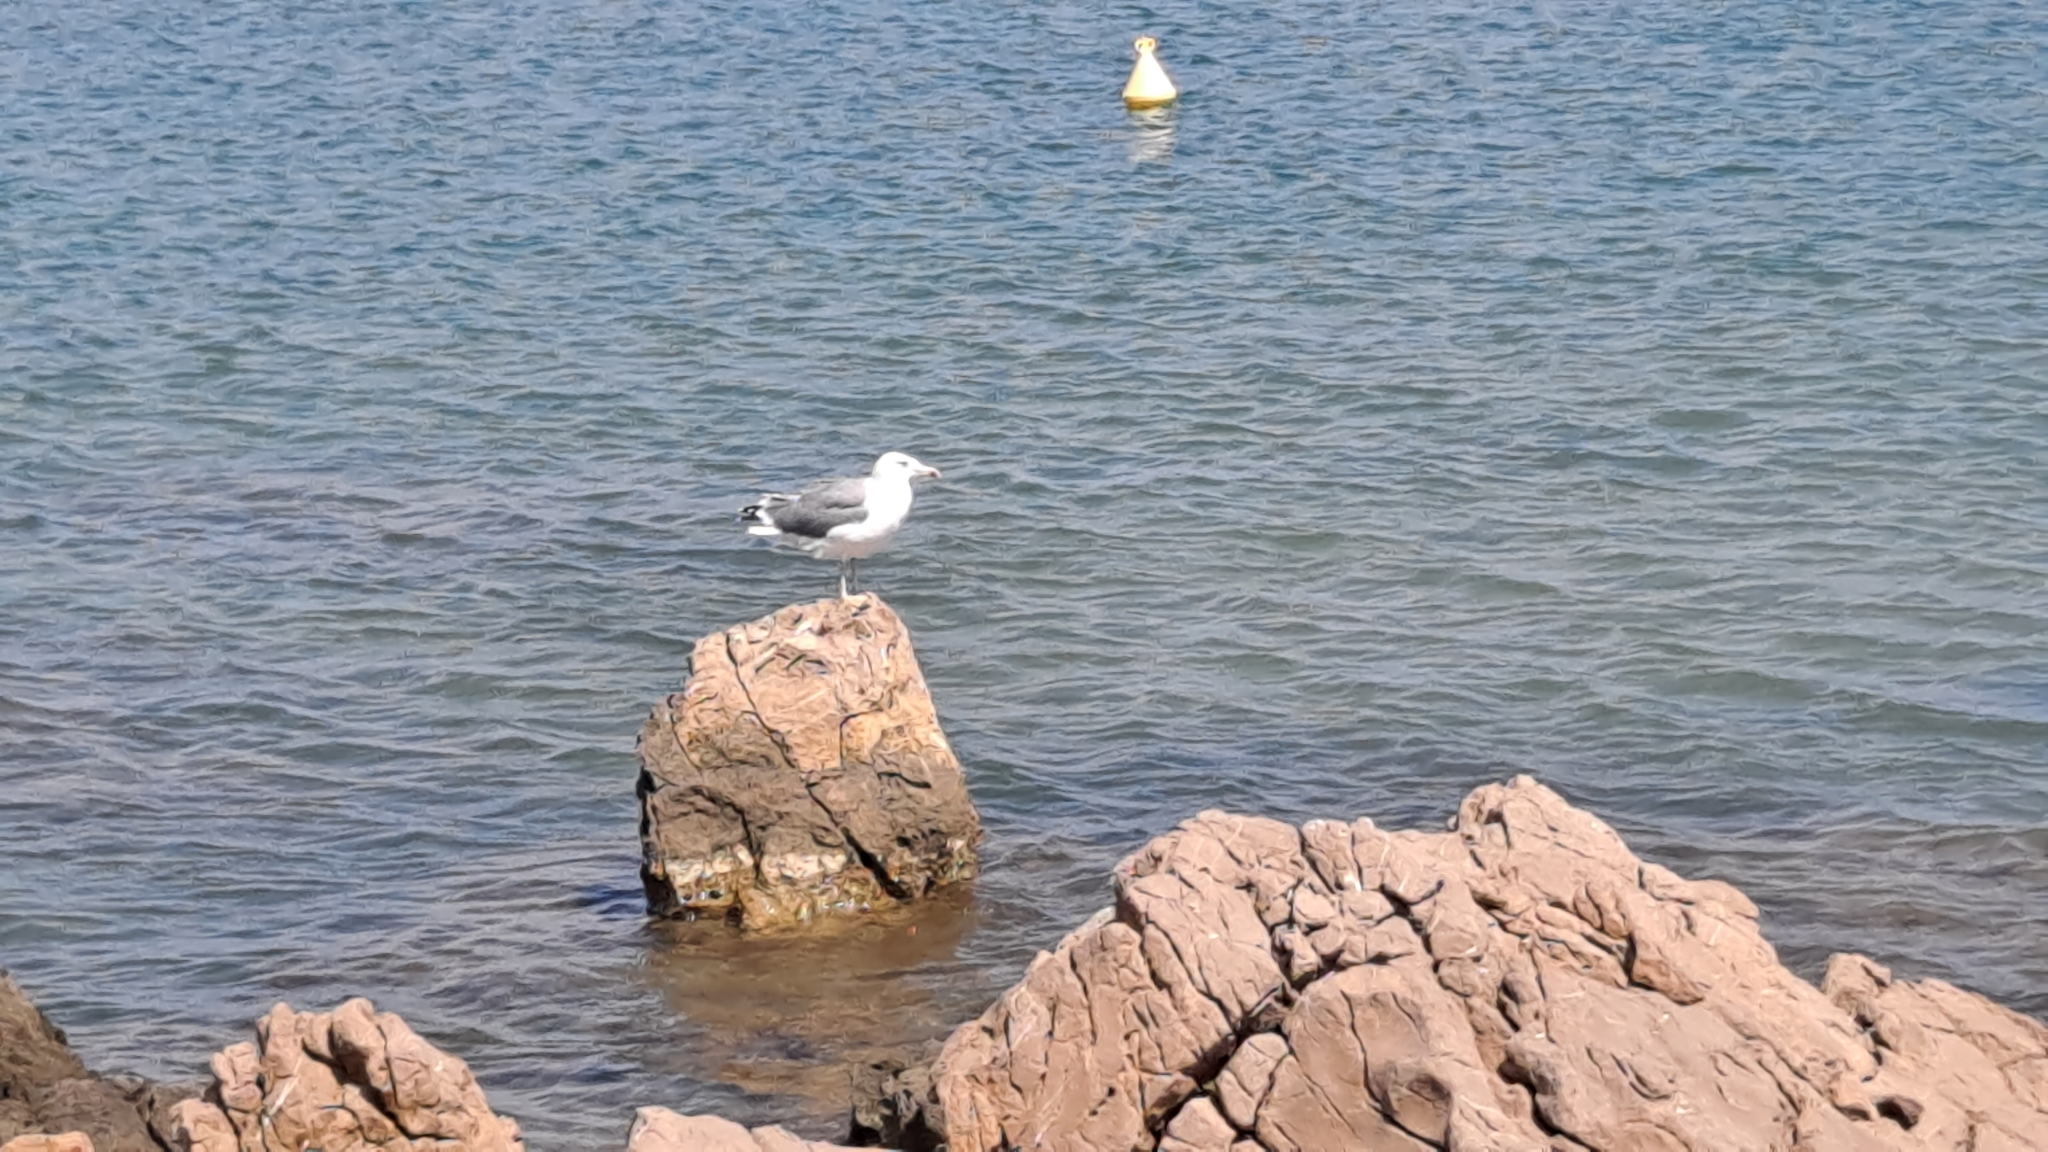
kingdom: Animalia
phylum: Chordata
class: Aves
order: Charadriiformes
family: Laridae
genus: Larus
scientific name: Larus michahellis
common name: Yellow-legged gull
